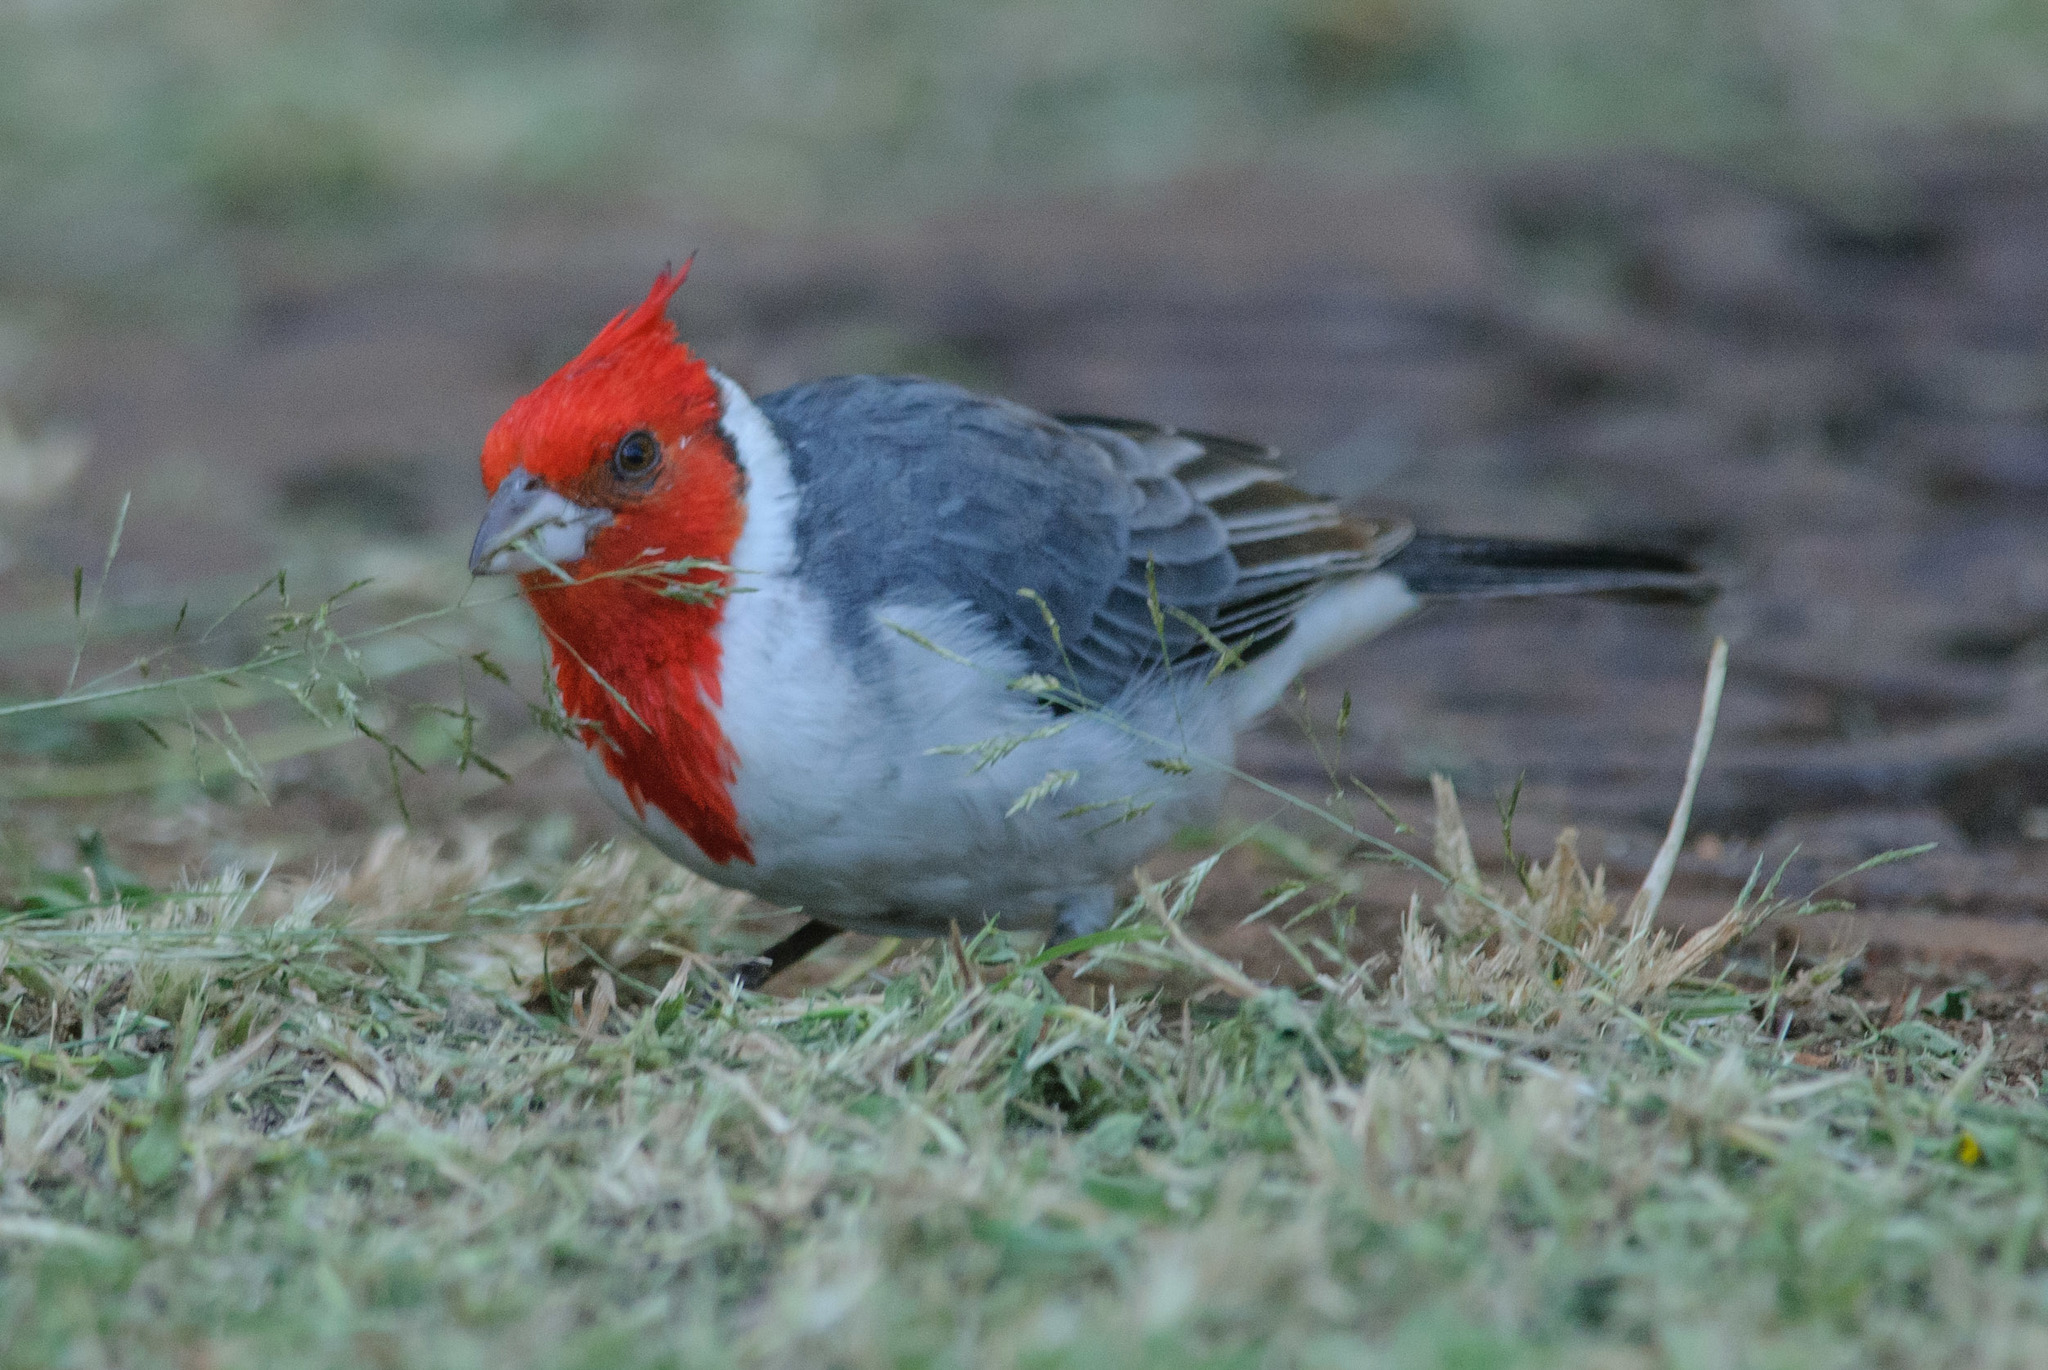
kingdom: Animalia
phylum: Chordata
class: Aves
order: Passeriformes
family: Thraupidae
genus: Paroaria
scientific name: Paroaria coronata
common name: Red-crested cardinal
